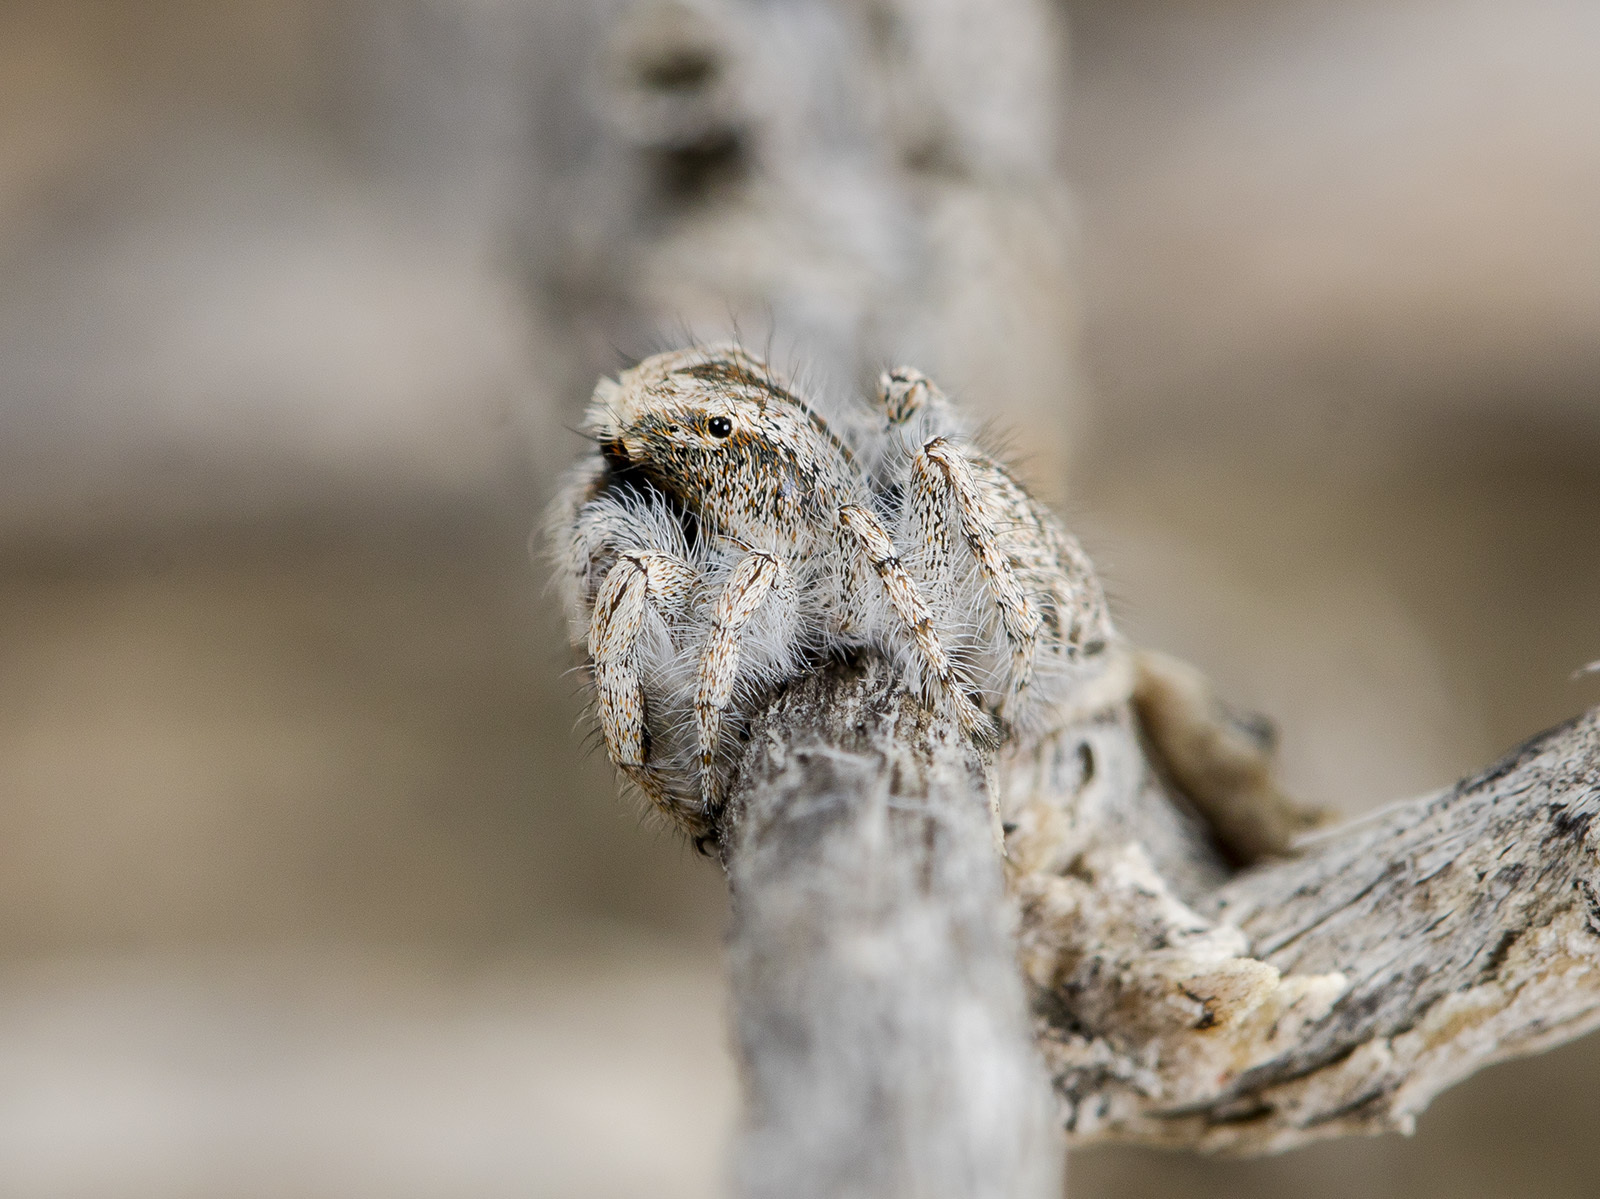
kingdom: Animalia
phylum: Arthropoda
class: Arachnida
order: Araneae
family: Salticidae
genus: Marusyllus
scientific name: Marusyllus aralicus
